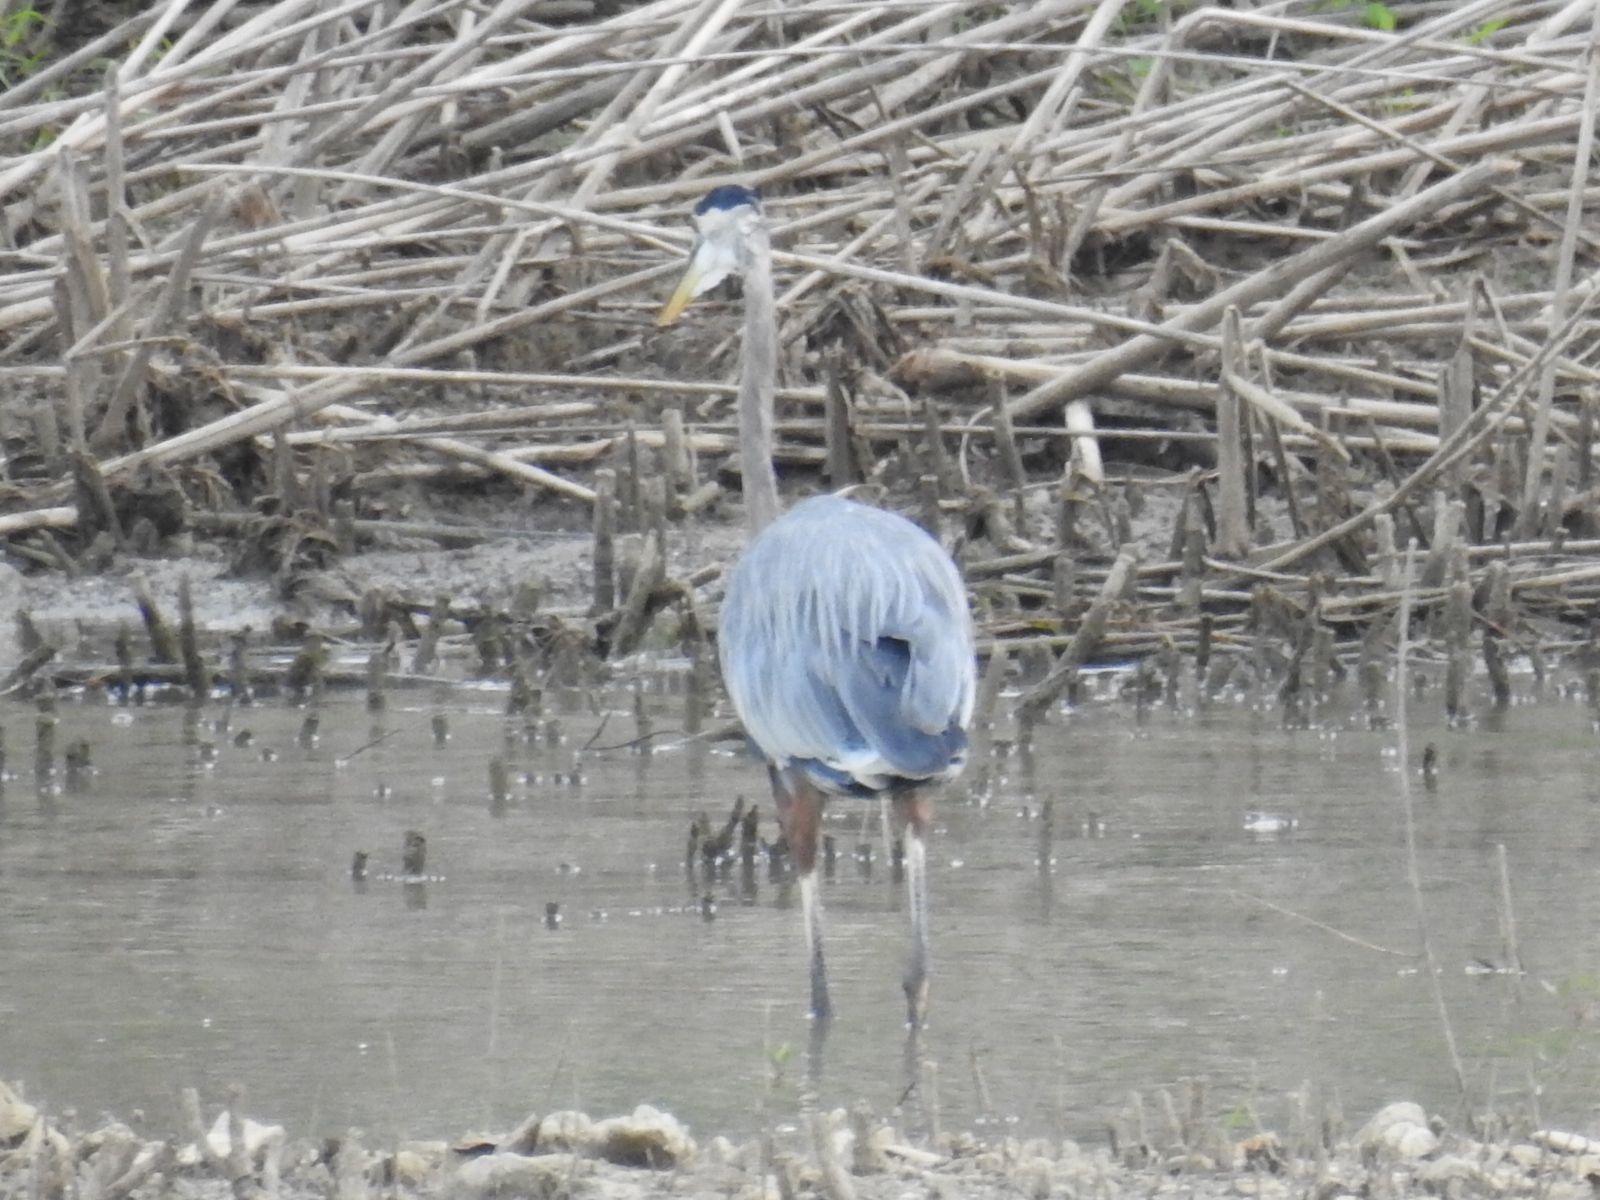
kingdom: Animalia
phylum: Chordata
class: Aves
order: Pelecaniformes
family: Ardeidae
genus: Ardea
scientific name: Ardea herodias
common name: Great blue heron
